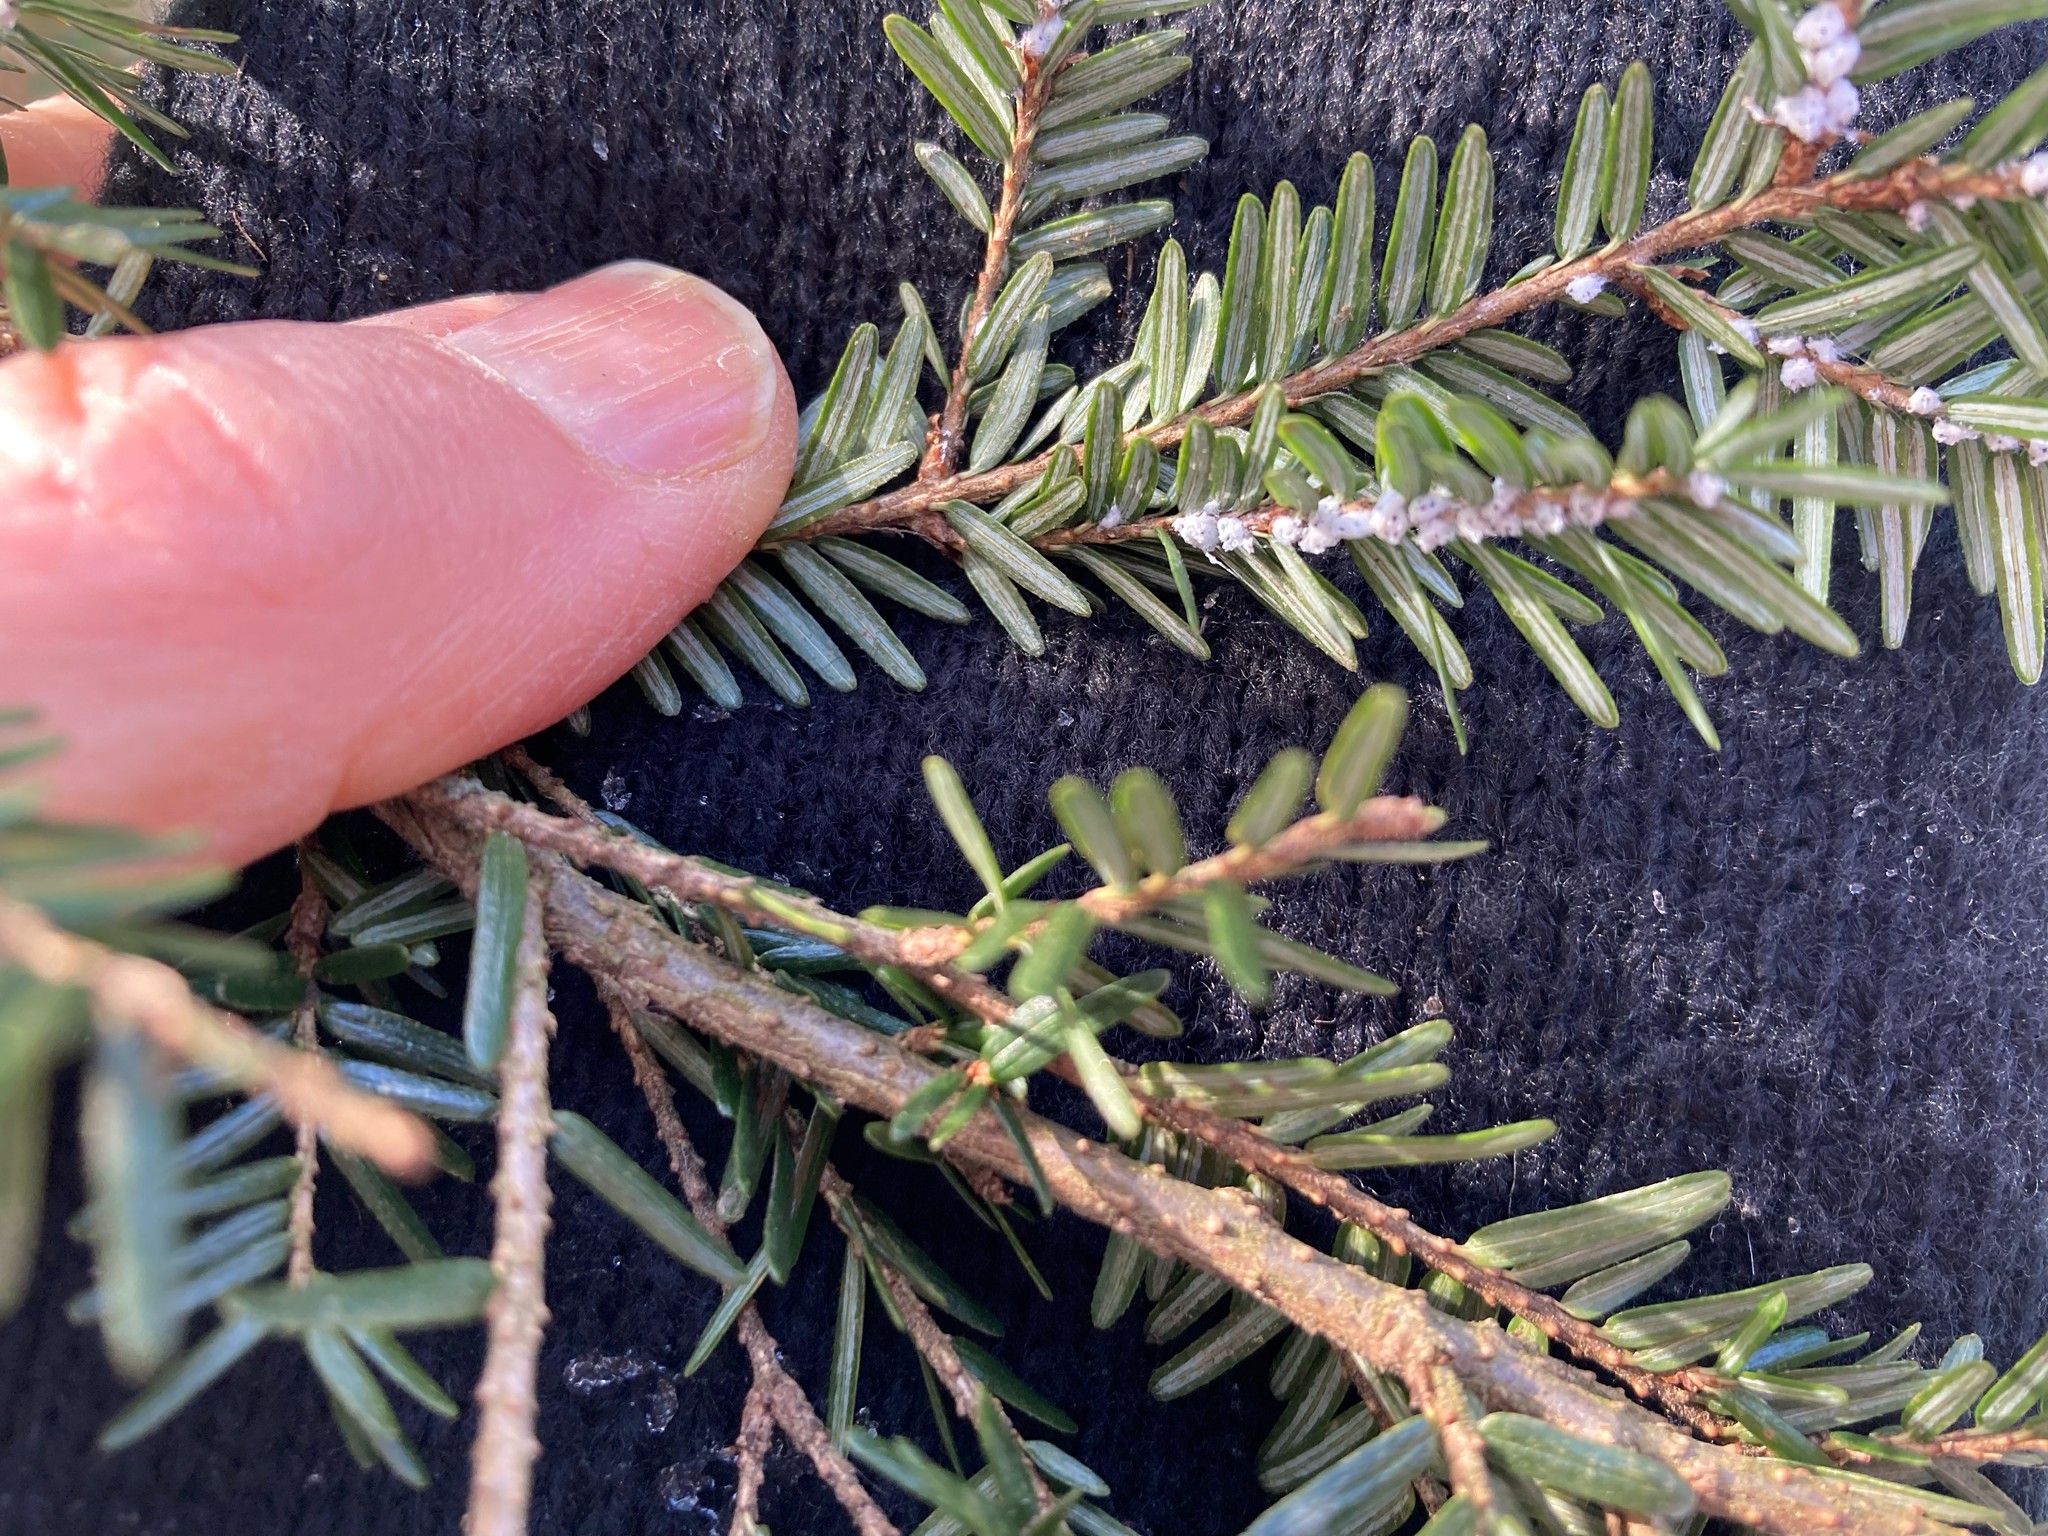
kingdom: Animalia
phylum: Arthropoda
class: Insecta
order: Hemiptera
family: Adelgidae
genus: Adelges
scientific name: Adelges tsugae
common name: Hemlock woolly adelgid
